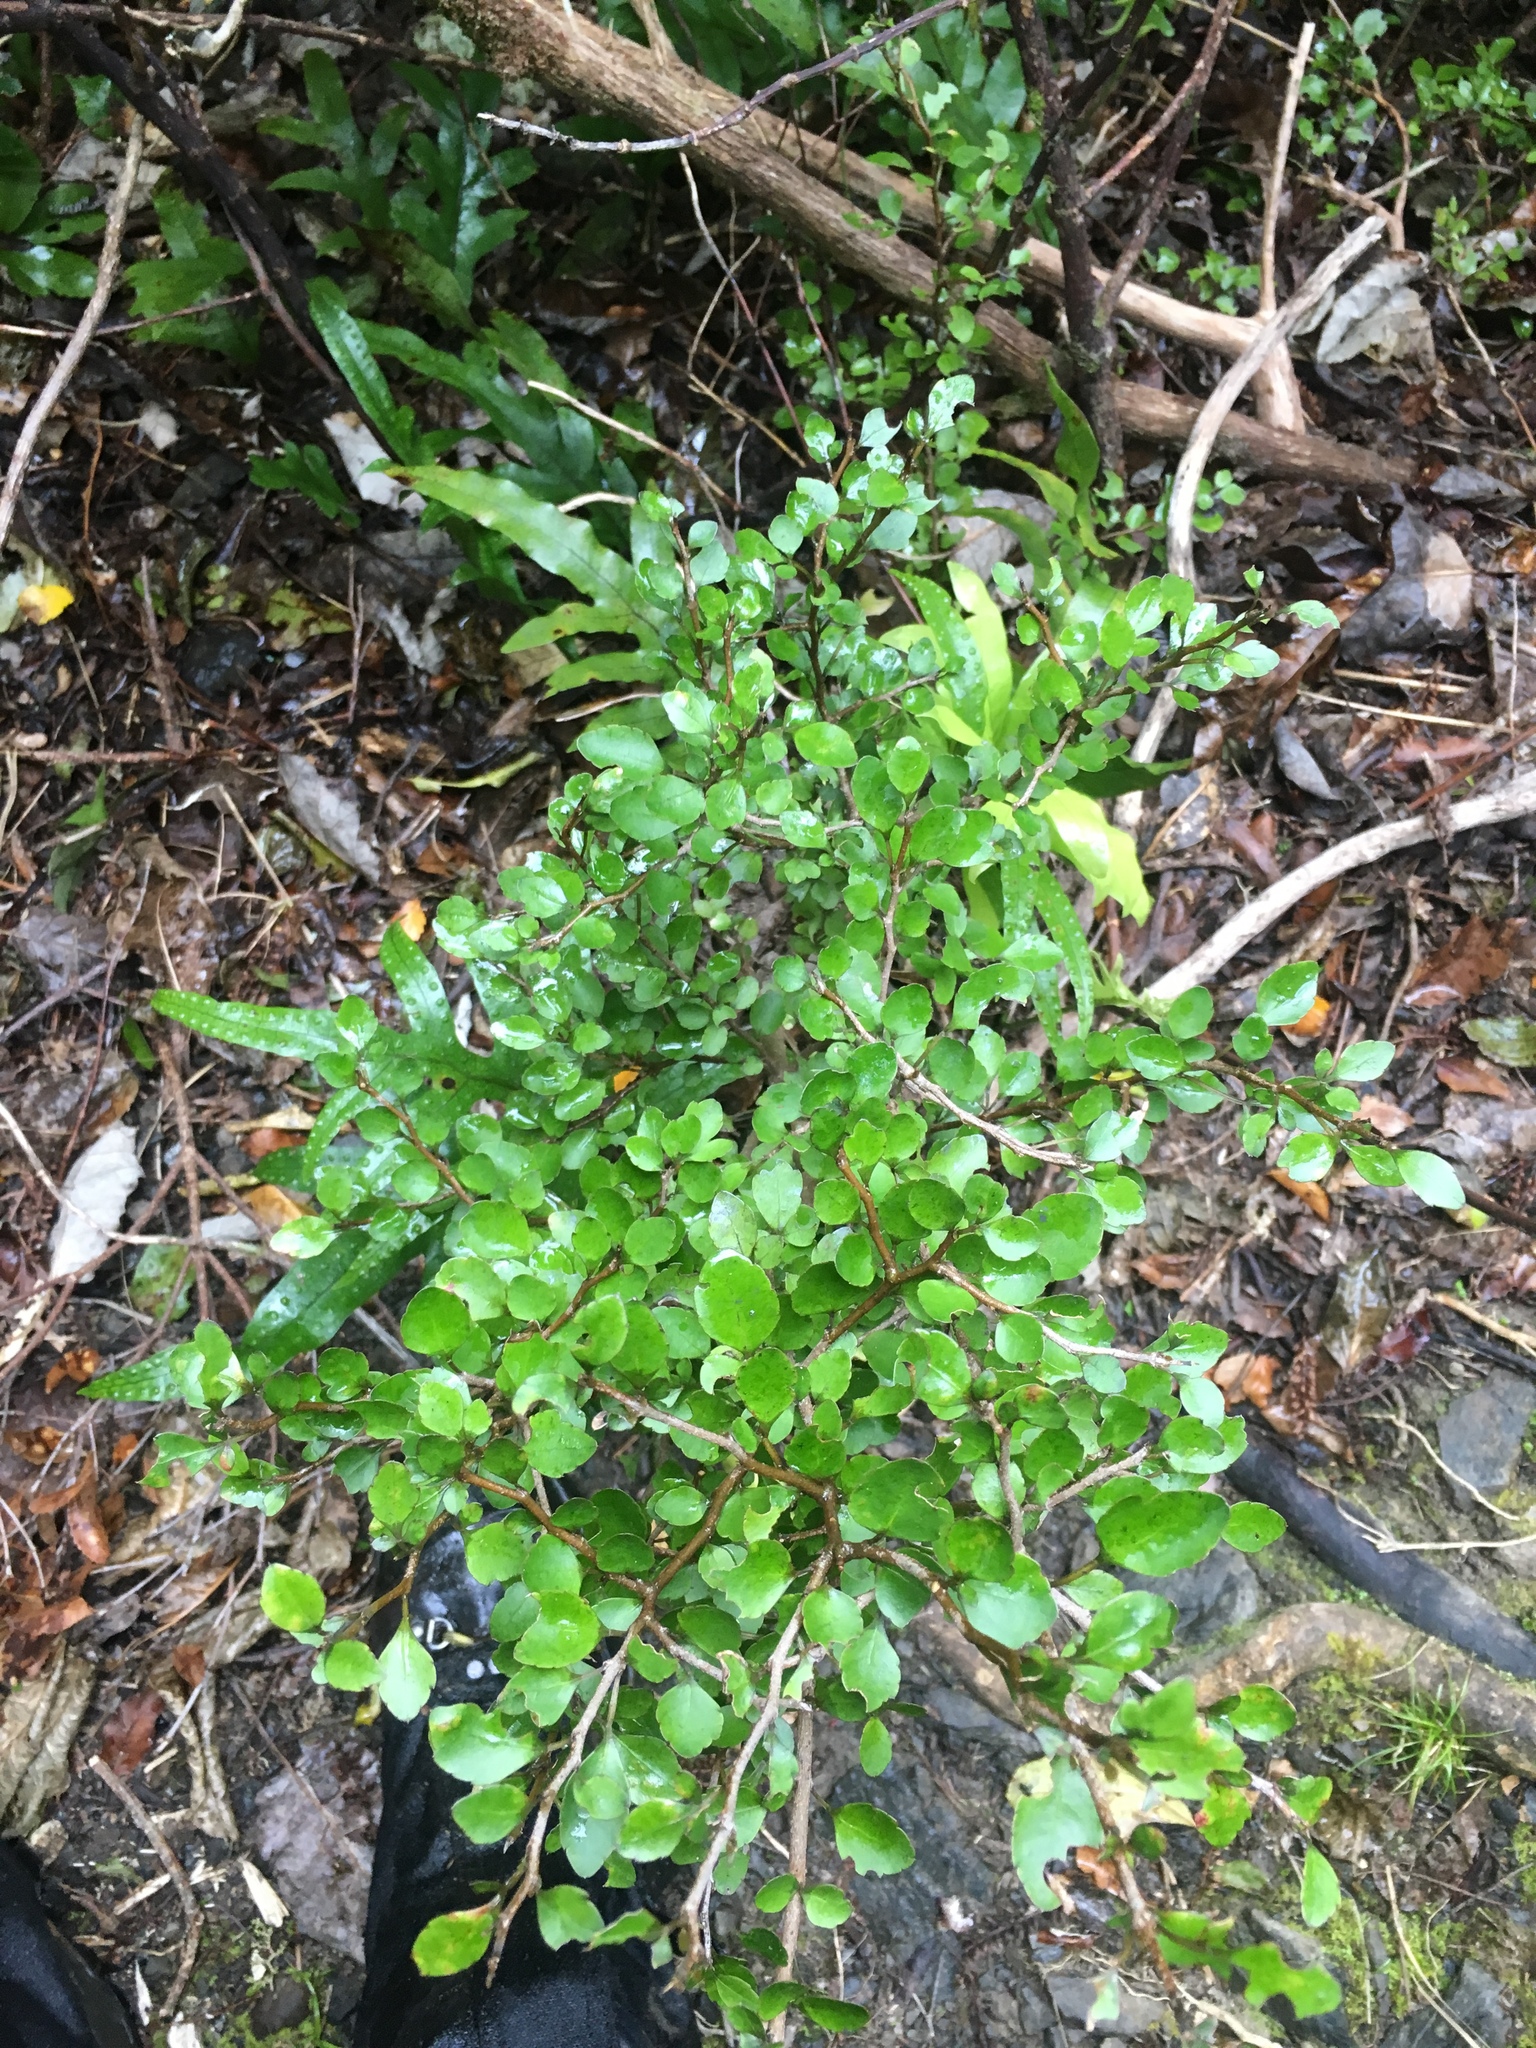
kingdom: Plantae
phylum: Tracheophyta
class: Magnoliopsida
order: Apiales
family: Araliaceae
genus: Raukaua
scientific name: Raukaua anomalus
